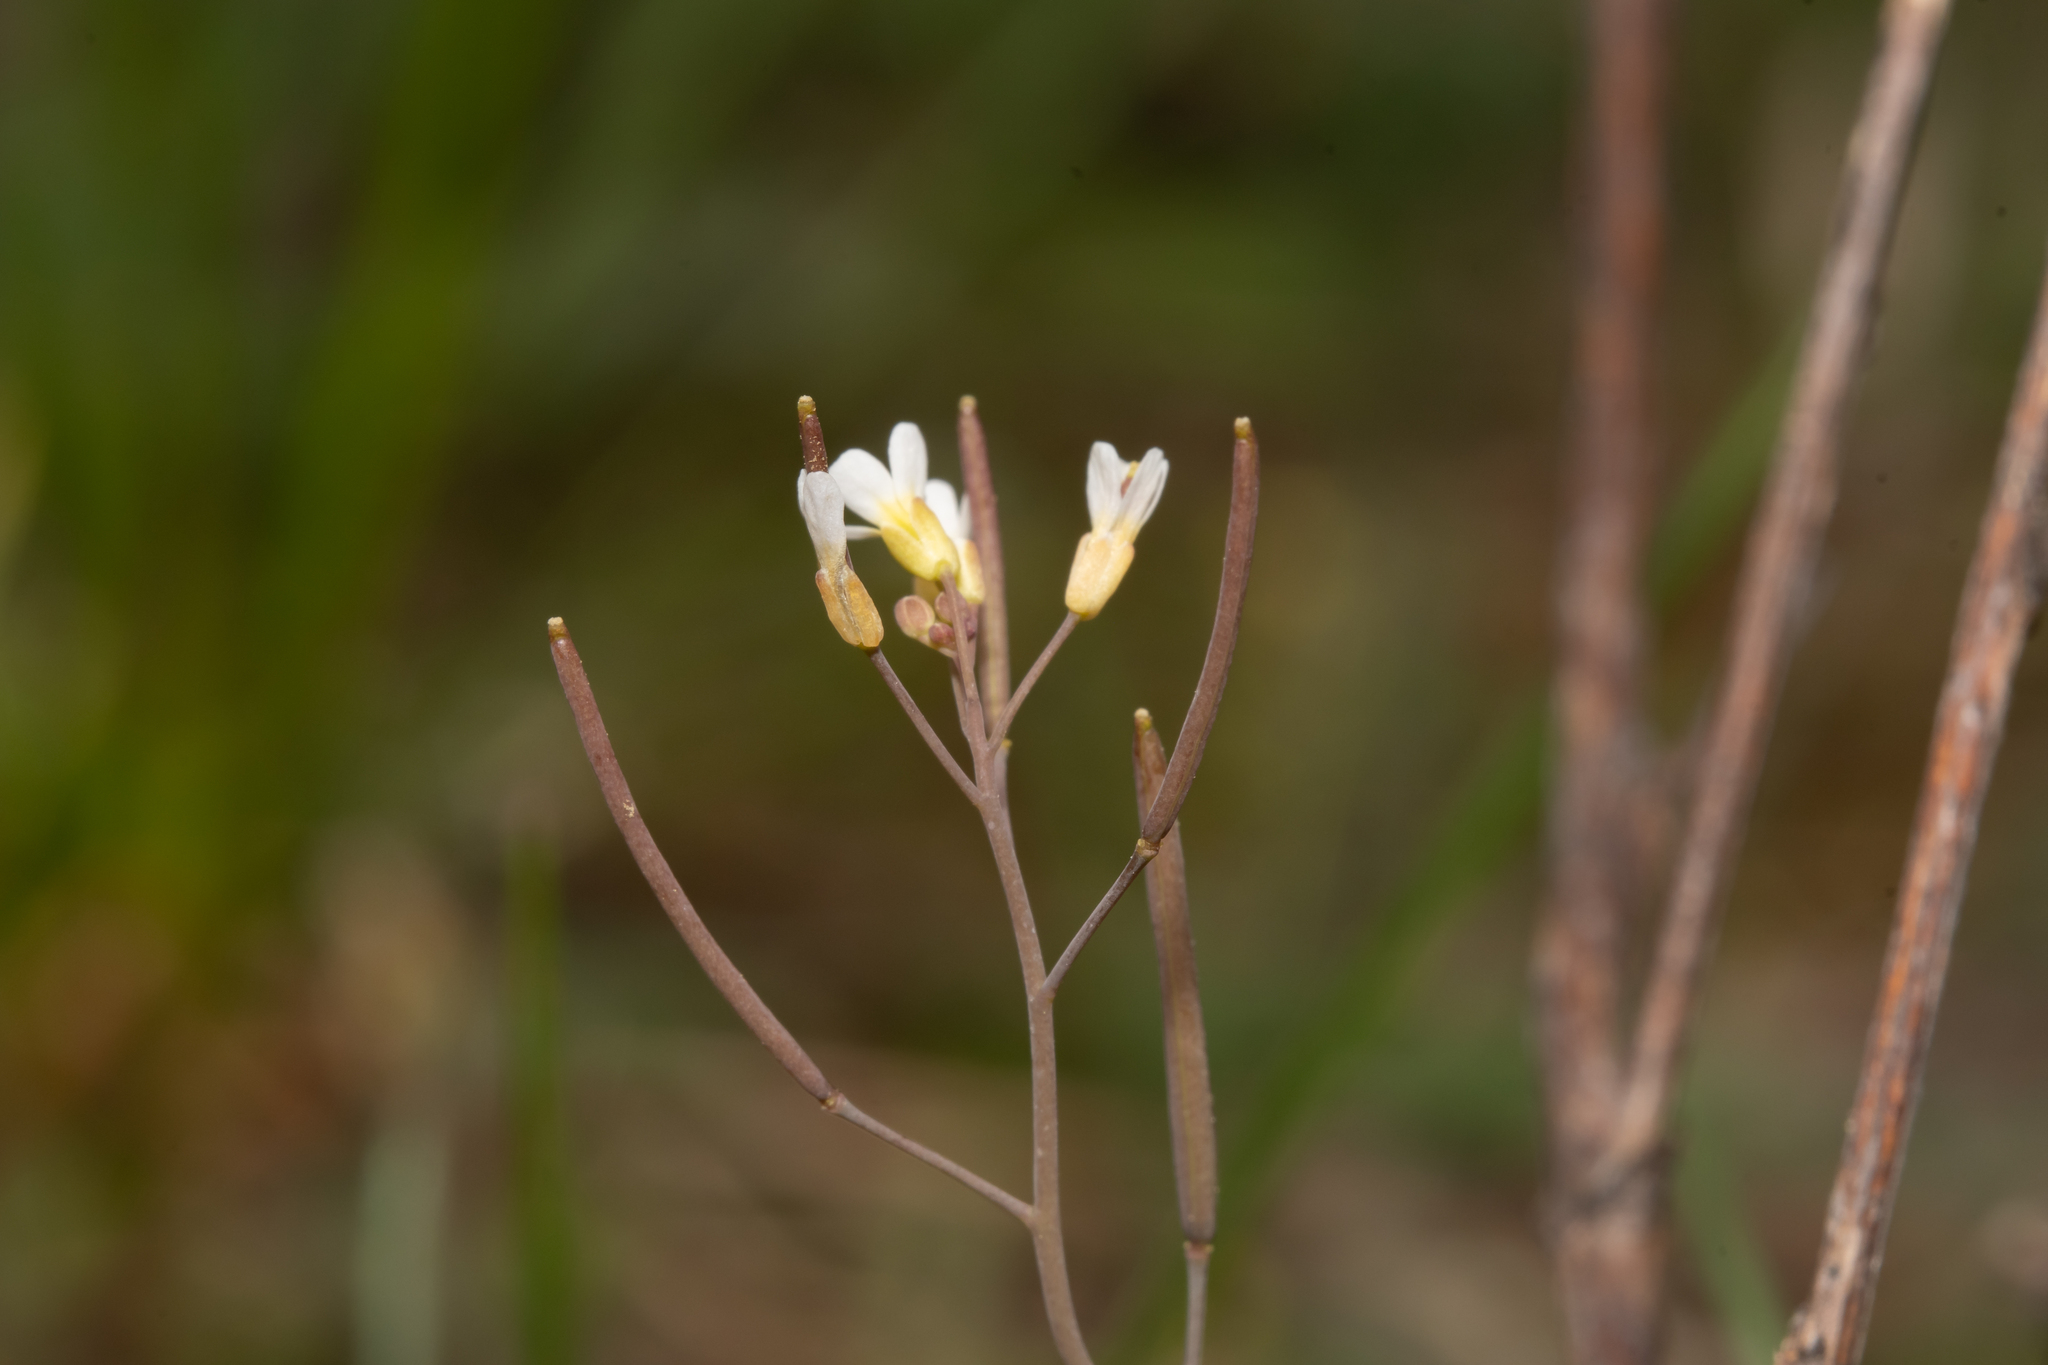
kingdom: Plantae
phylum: Tracheophyta
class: Magnoliopsida
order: Brassicales
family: Brassicaceae
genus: Arabidopsis
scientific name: Arabidopsis thaliana
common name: Thale cress
